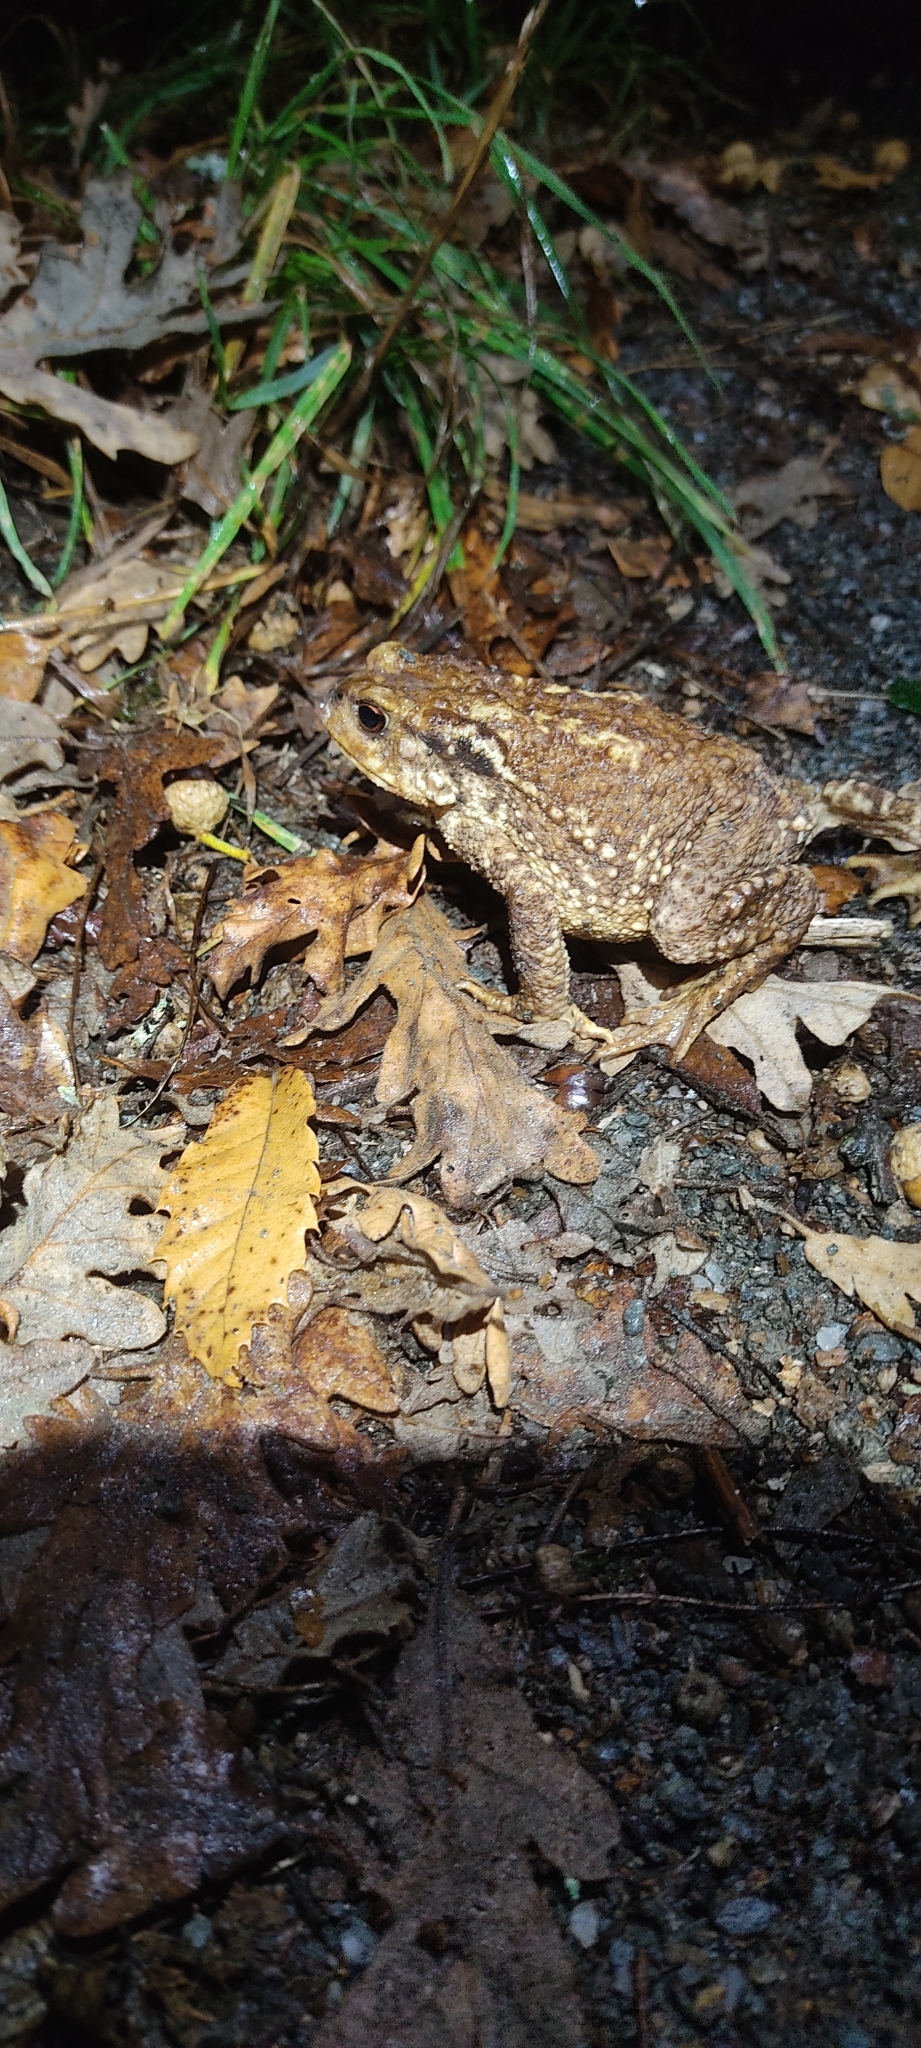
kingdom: Animalia
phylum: Chordata
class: Amphibia
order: Anura
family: Bufonidae
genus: Bufo
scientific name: Bufo spinosus
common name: Western common toad
